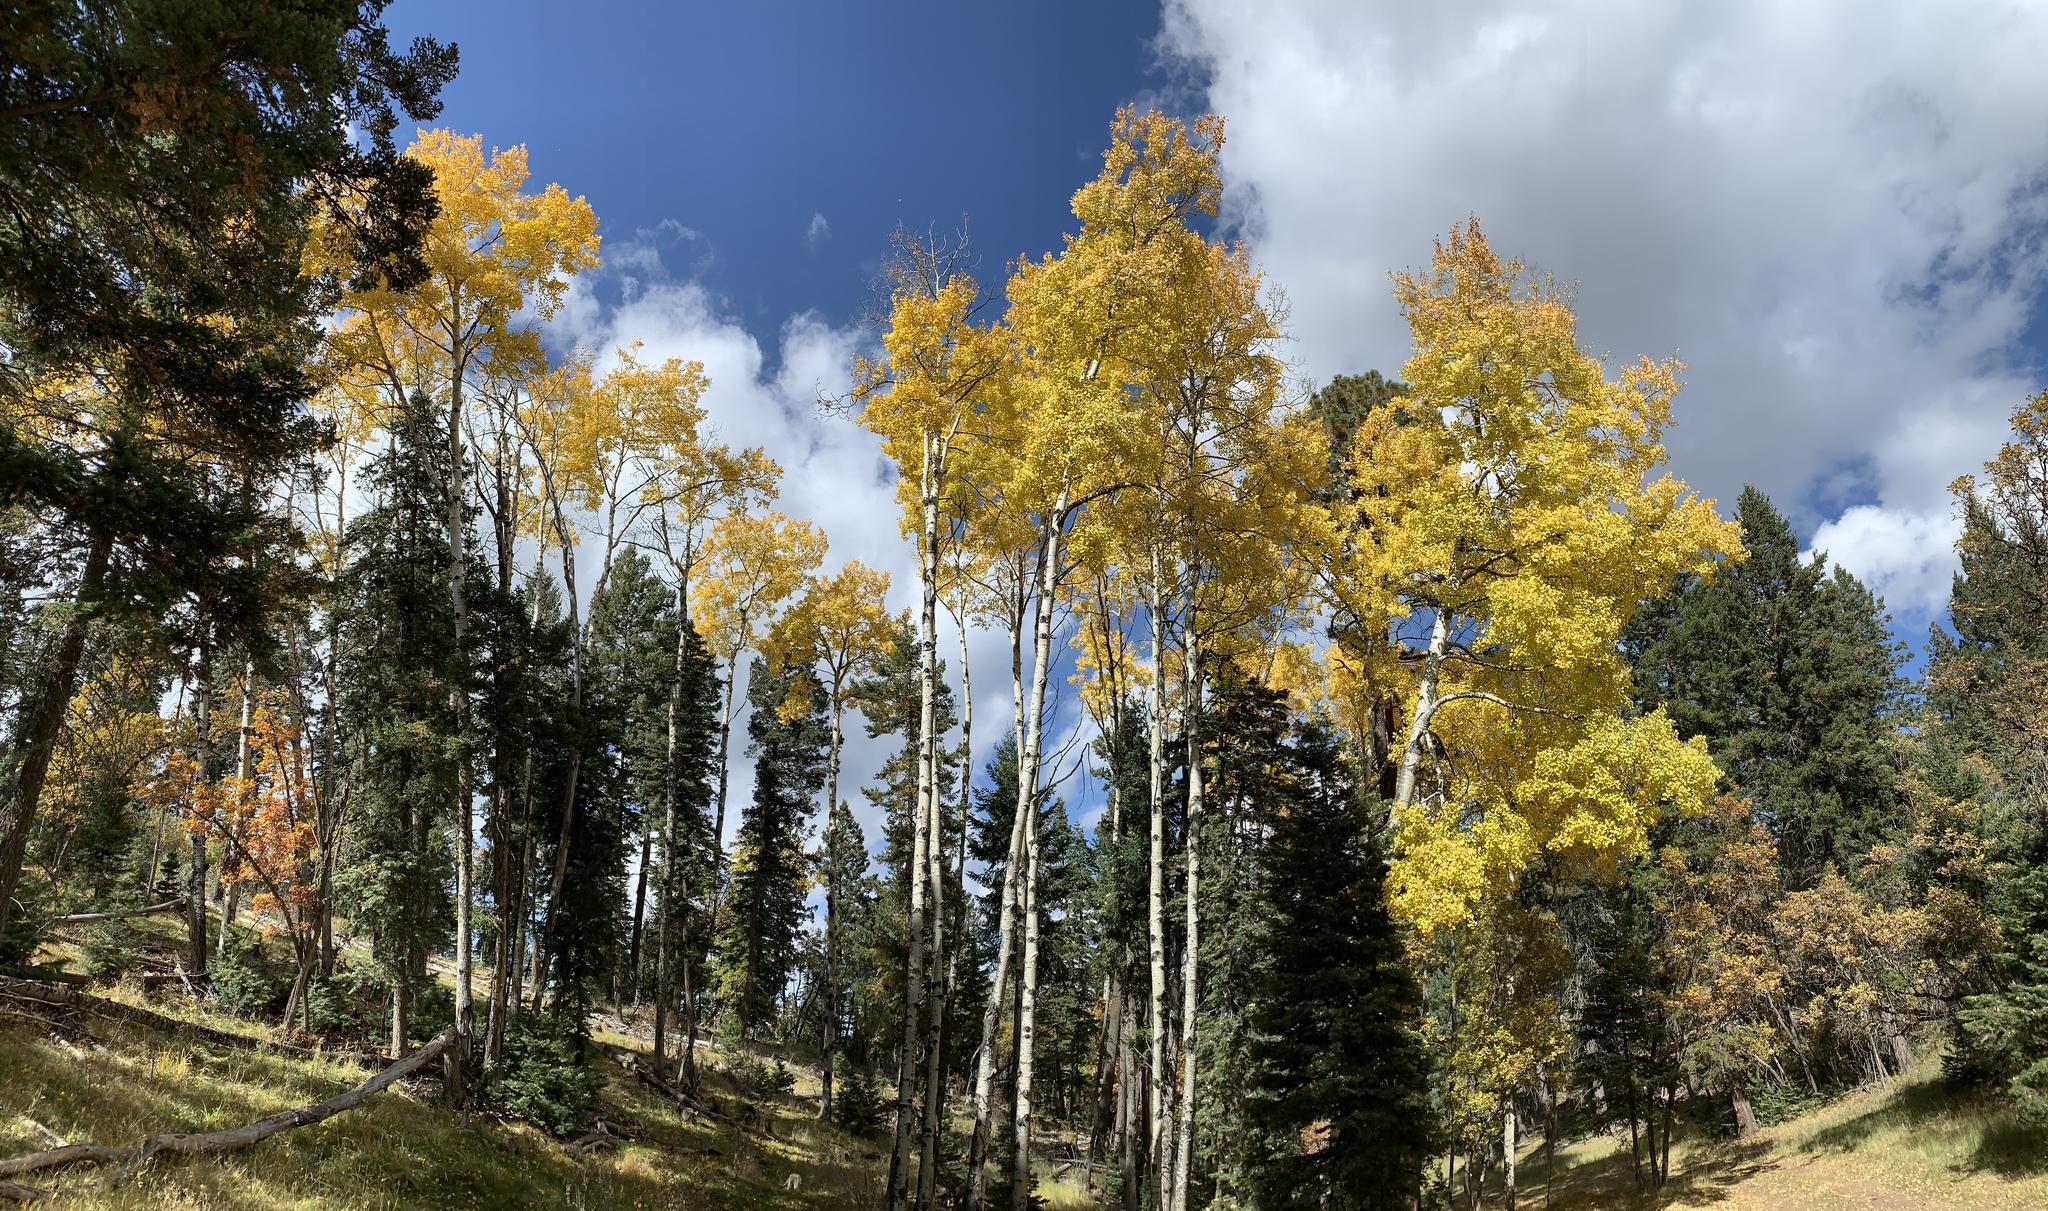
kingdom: Plantae
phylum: Tracheophyta
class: Magnoliopsida
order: Malpighiales
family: Salicaceae
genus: Populus
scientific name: Populus tremuloides
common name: Quaking aspen
